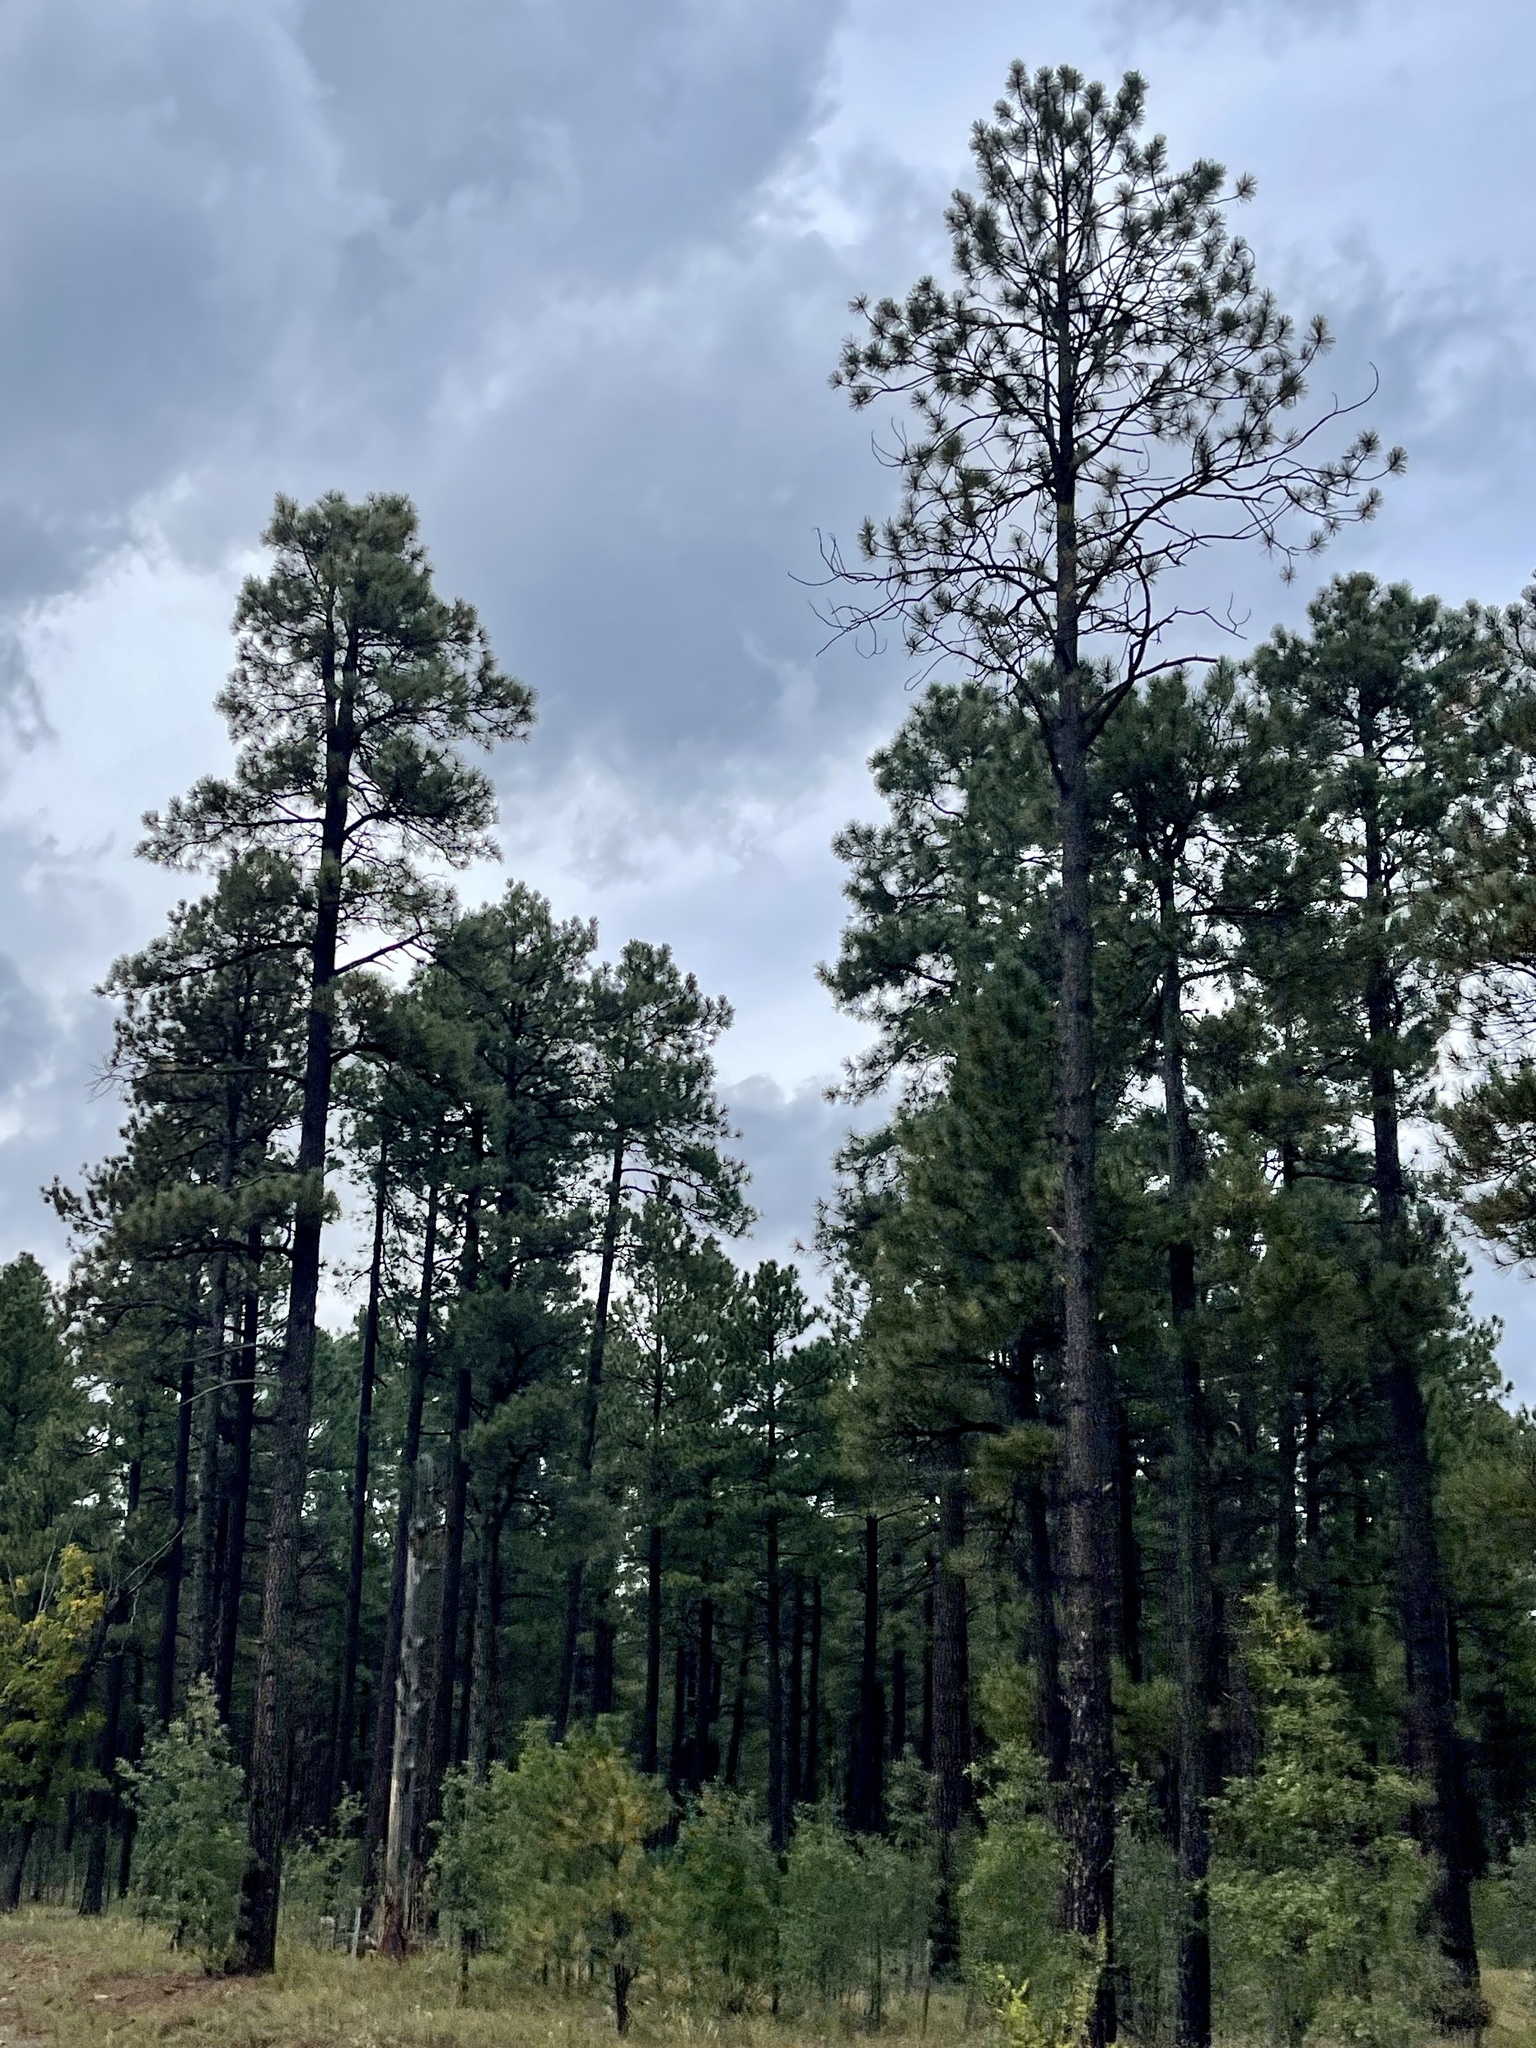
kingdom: Plantae
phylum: Tracheophyta
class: Pinopsida
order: Pinales
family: Pinaceae
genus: Pinus
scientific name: Pinus ponderosa
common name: Western yellow-pine
